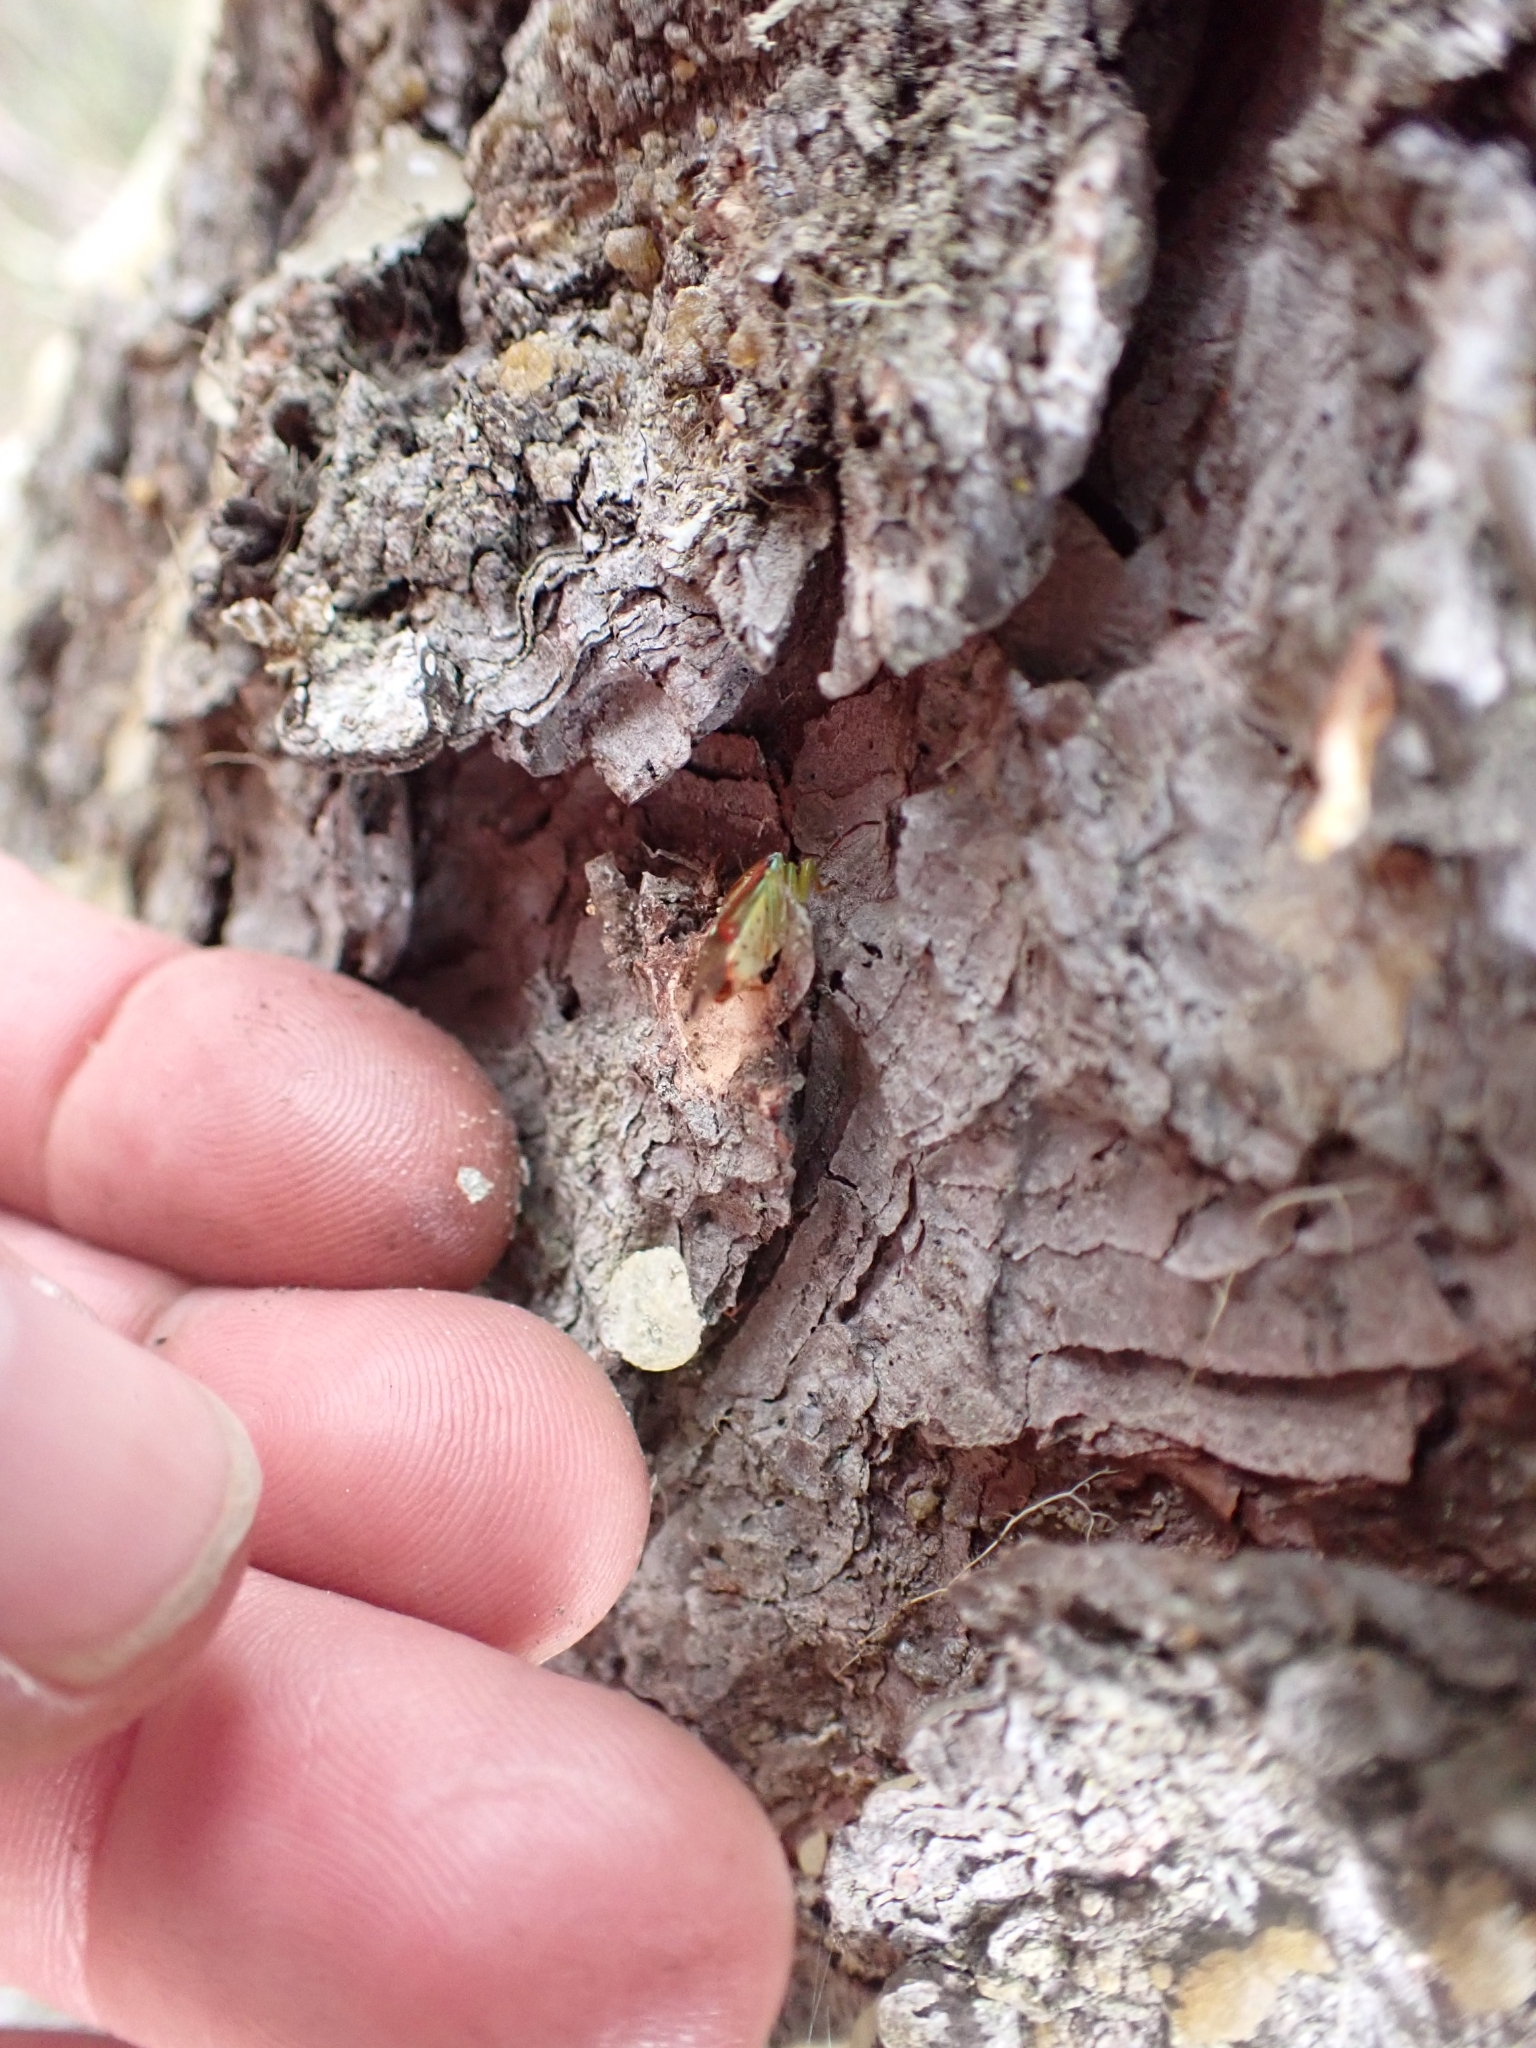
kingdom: Animalia
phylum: Arthropoda
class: Insecta
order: Hemiptera
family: Acanthosomatidae
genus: Elasmostethus
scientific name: Elasmostethus interstinctus
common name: Birch shieldbug
